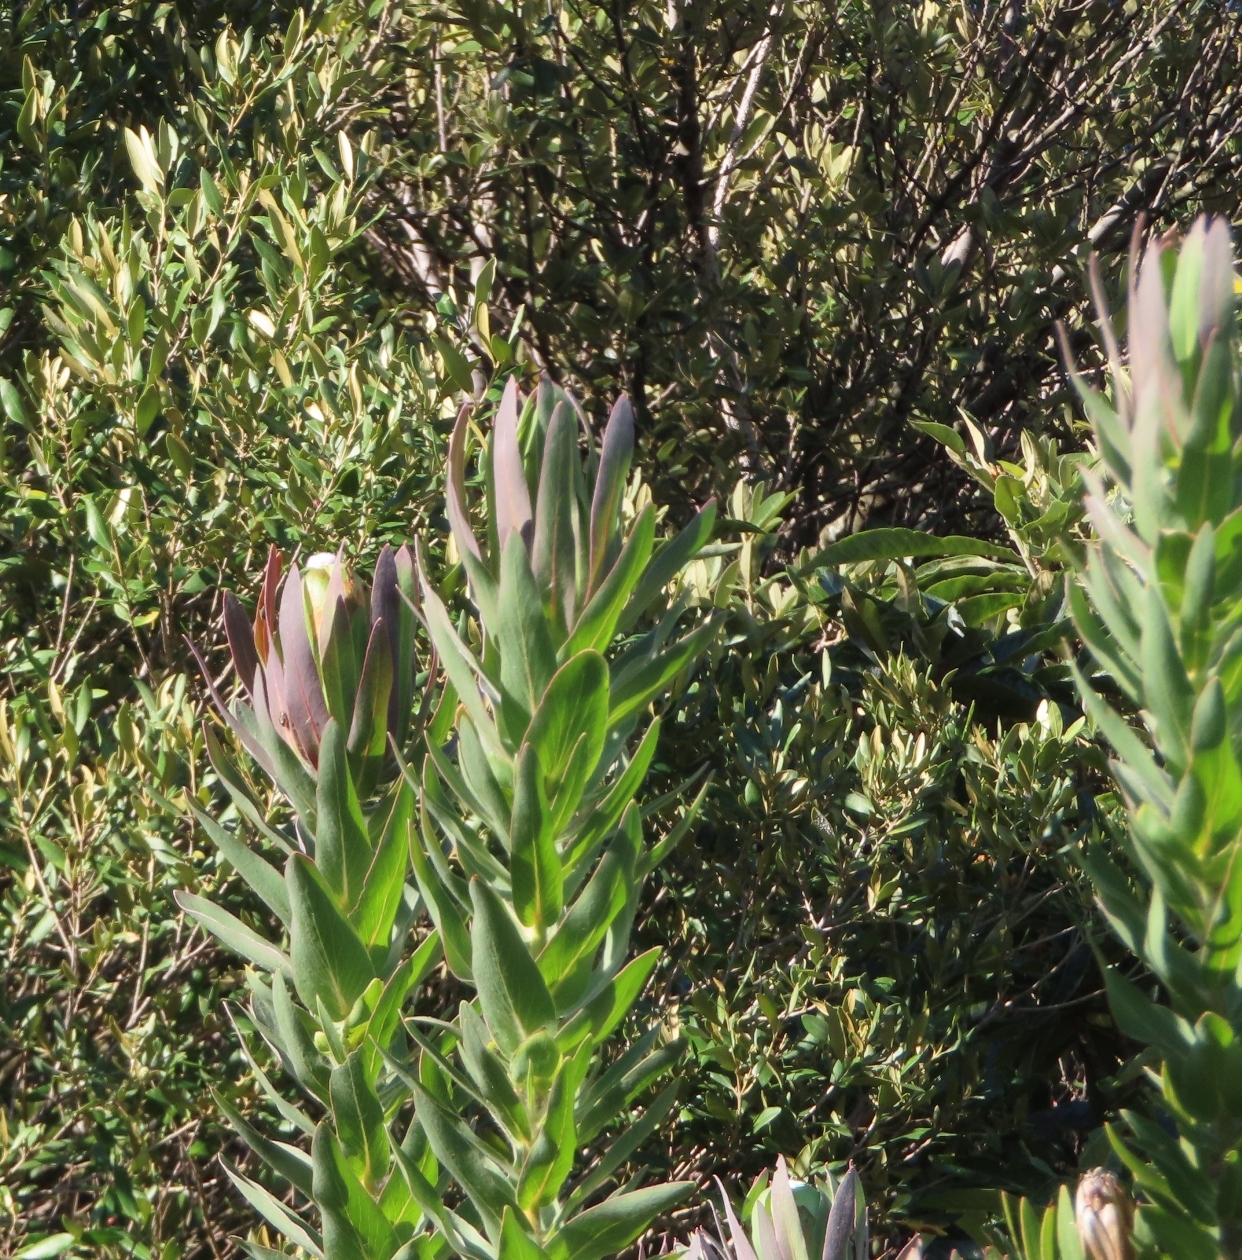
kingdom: Plantae
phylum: Tracheophyta
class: Magnoliopsida
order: Proteales
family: Proteaceae
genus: Protea
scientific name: Protea coronata
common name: Green sugarbush
